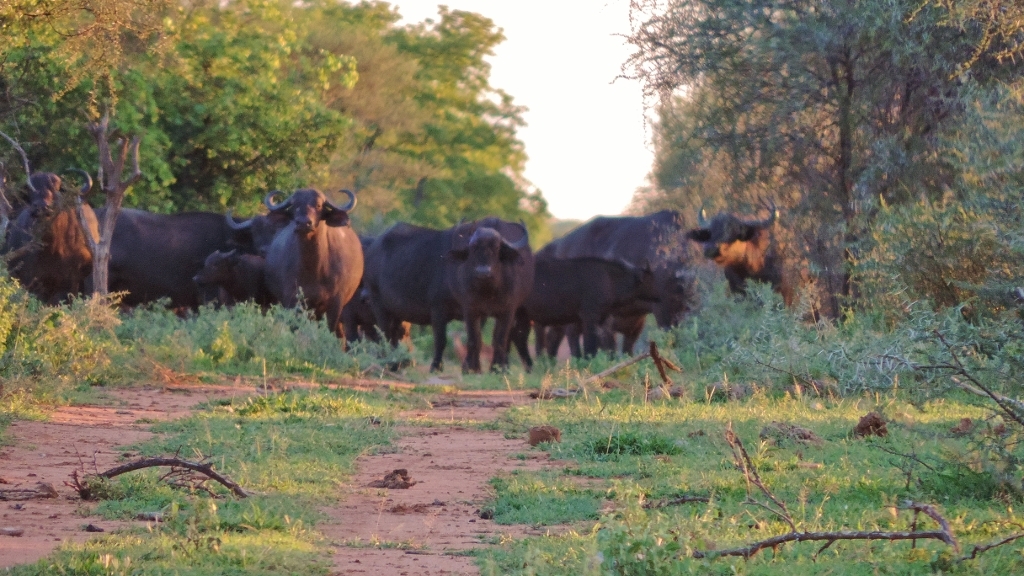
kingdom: Animalia
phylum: Chordata
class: Mammalia
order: Artiodactyla
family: Bovidae
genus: Syncerus
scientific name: Syncerus caffer
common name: African buffalo
